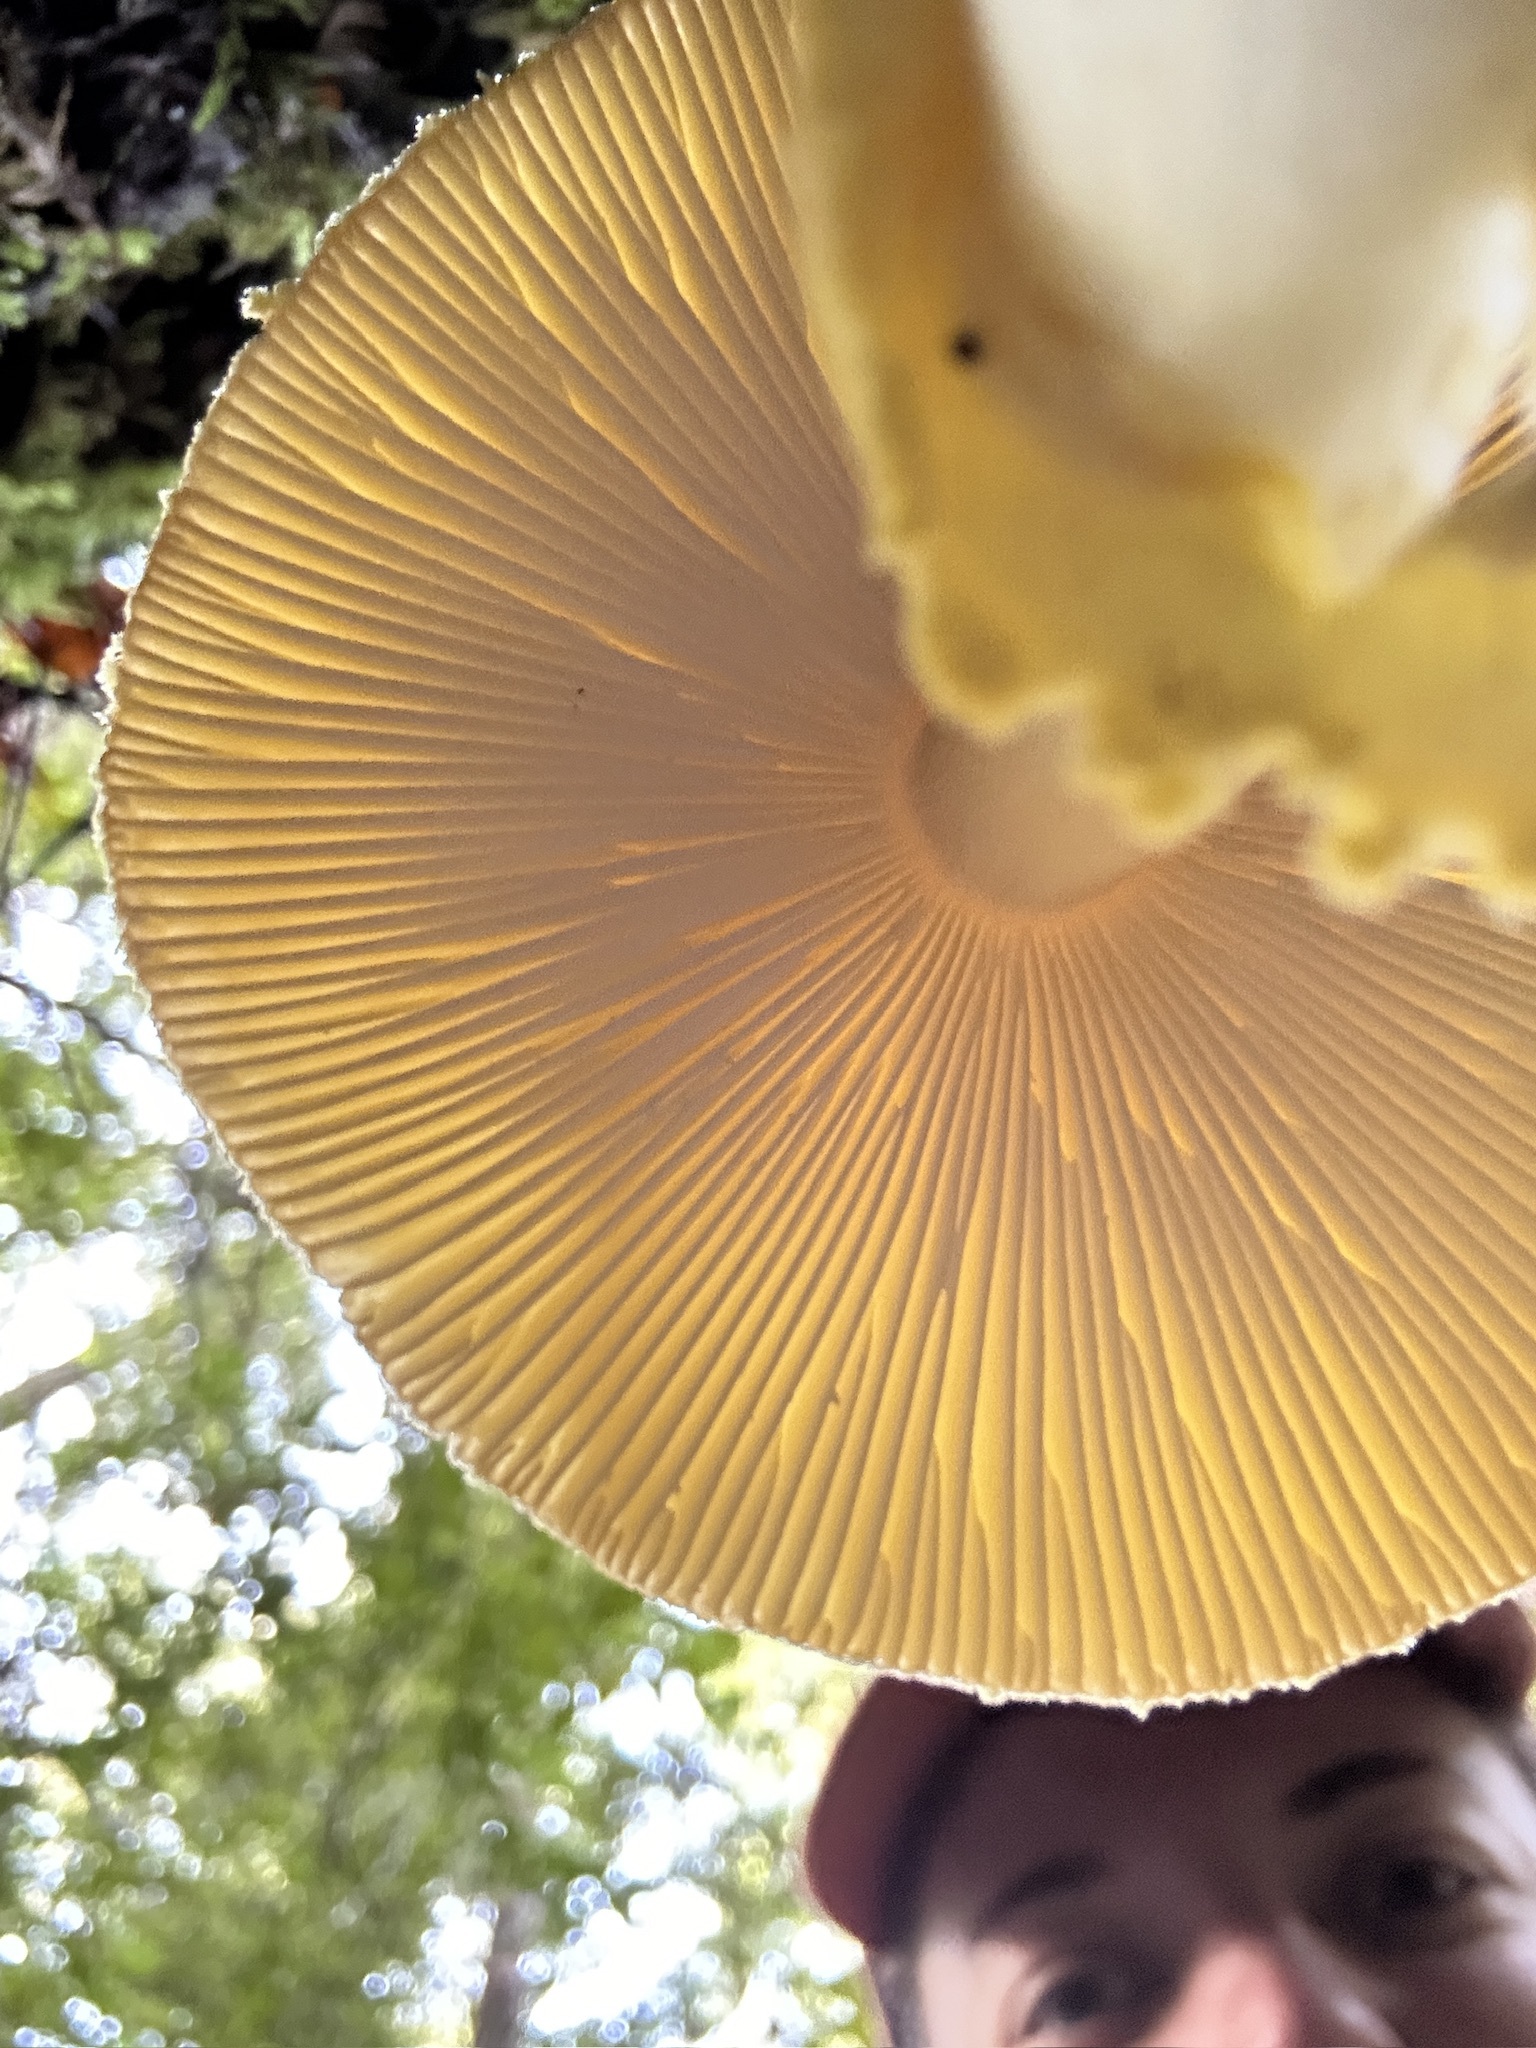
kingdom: Fungi
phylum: Basidiomycota
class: Agaricomycetes
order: Agaricales
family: Amanitaceae
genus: Amanita
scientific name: Amanita augusta
